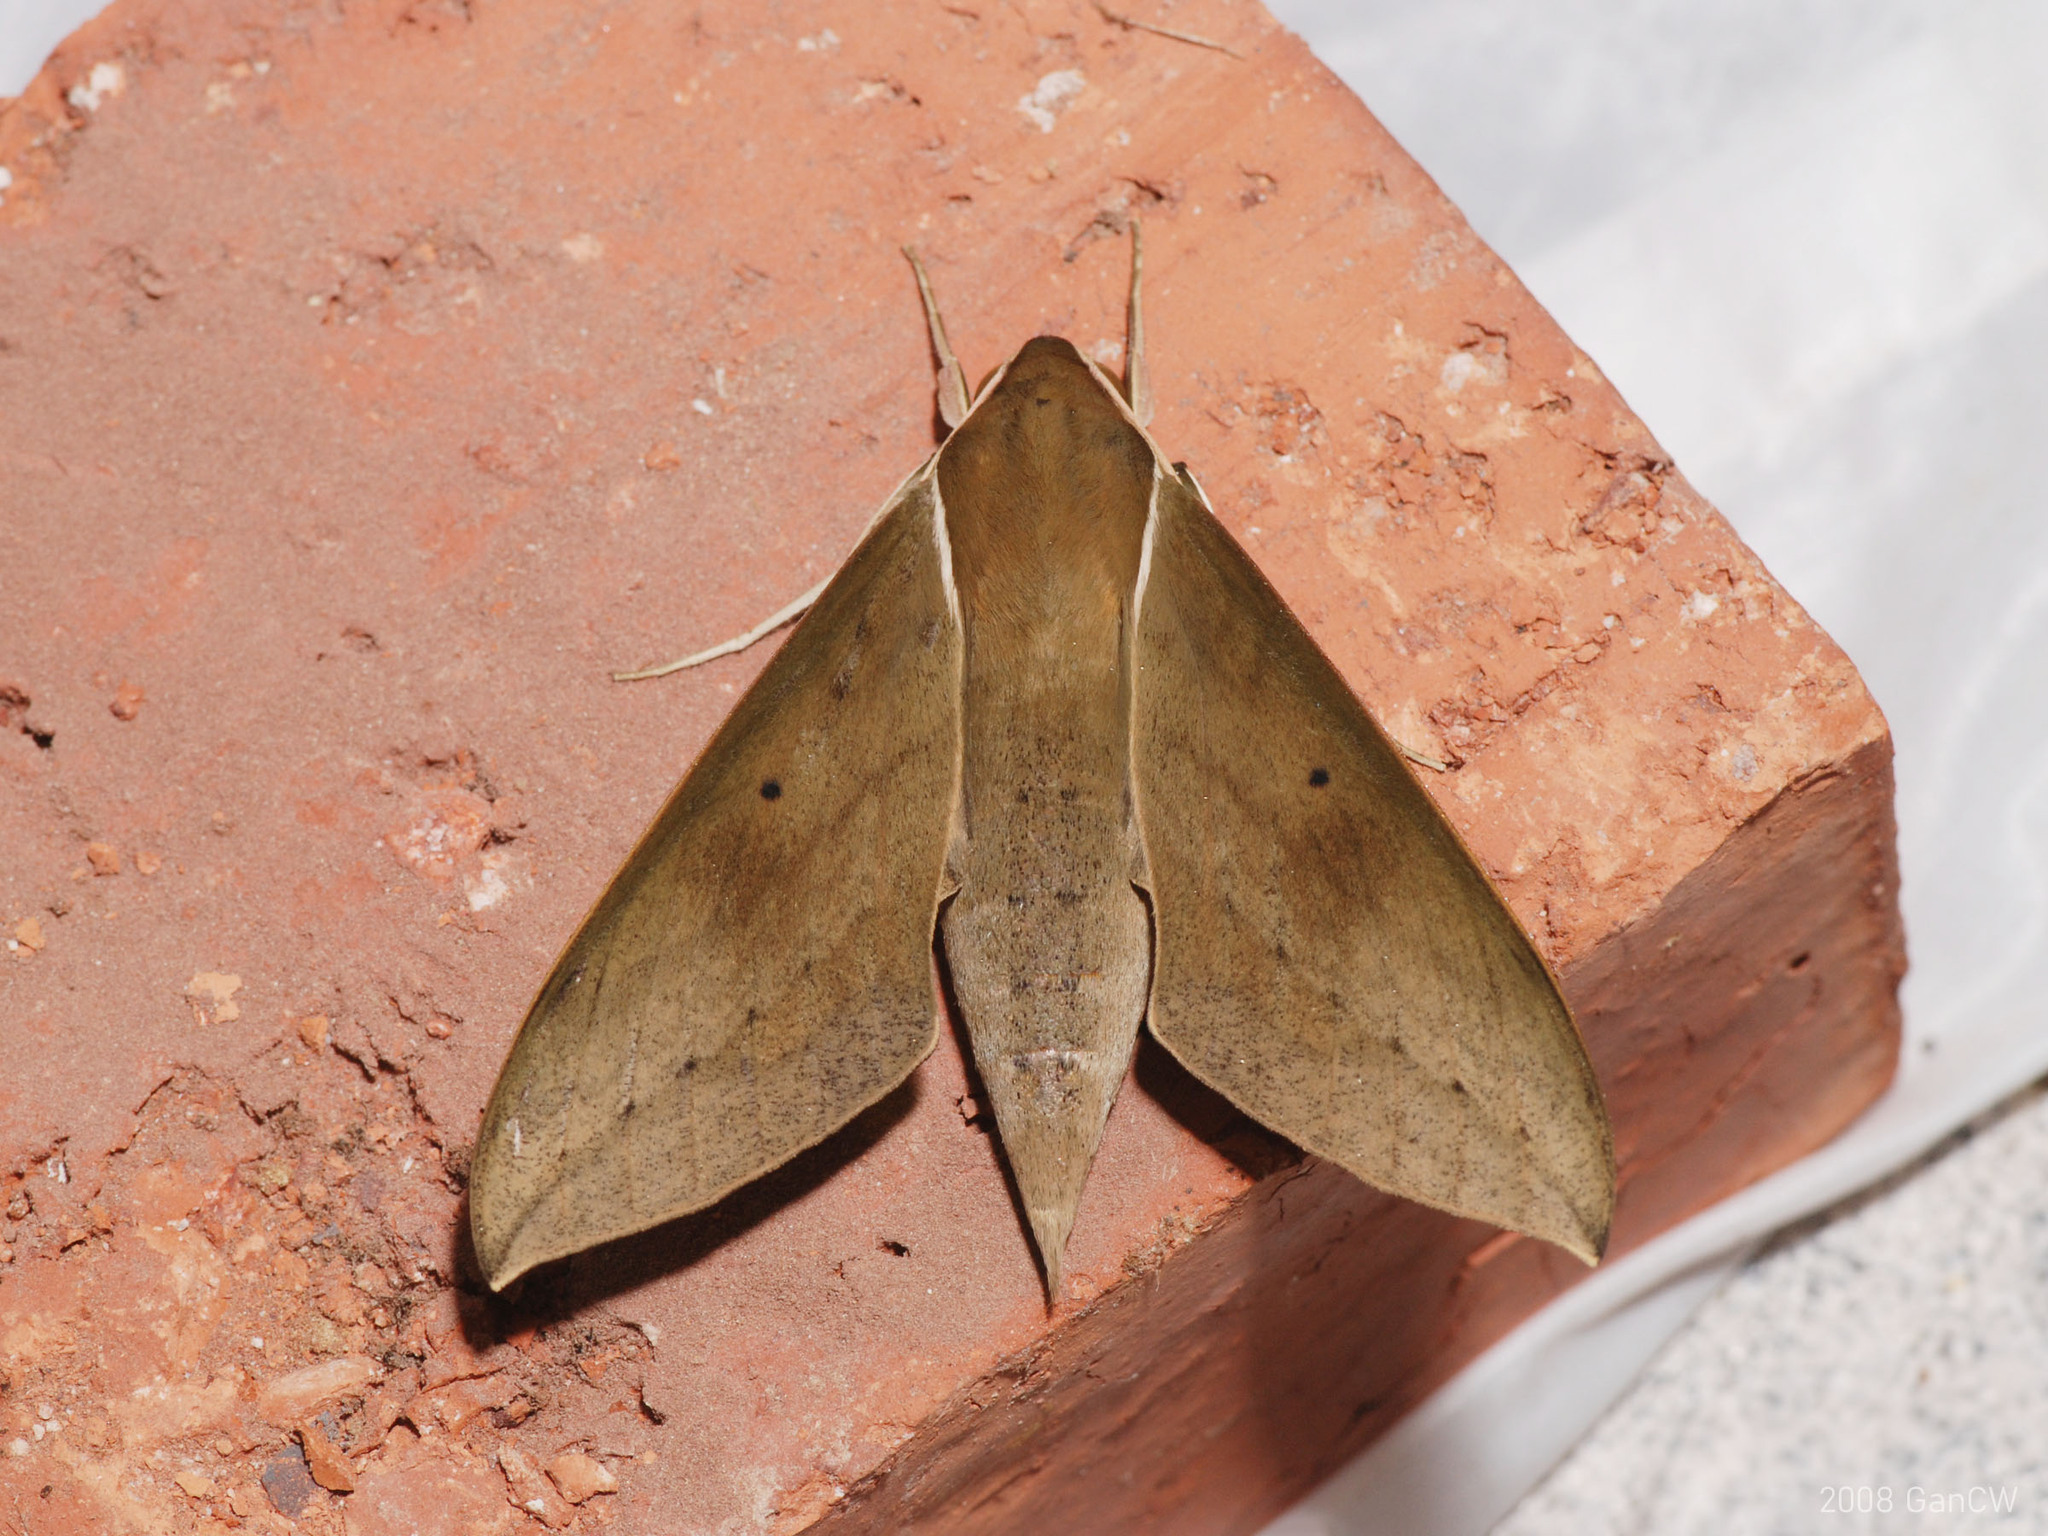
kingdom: Animalia
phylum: Arthropoda
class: Insecta
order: Lepidoptera
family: Sphingidae
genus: Theretra
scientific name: Theretra boisduvalii
